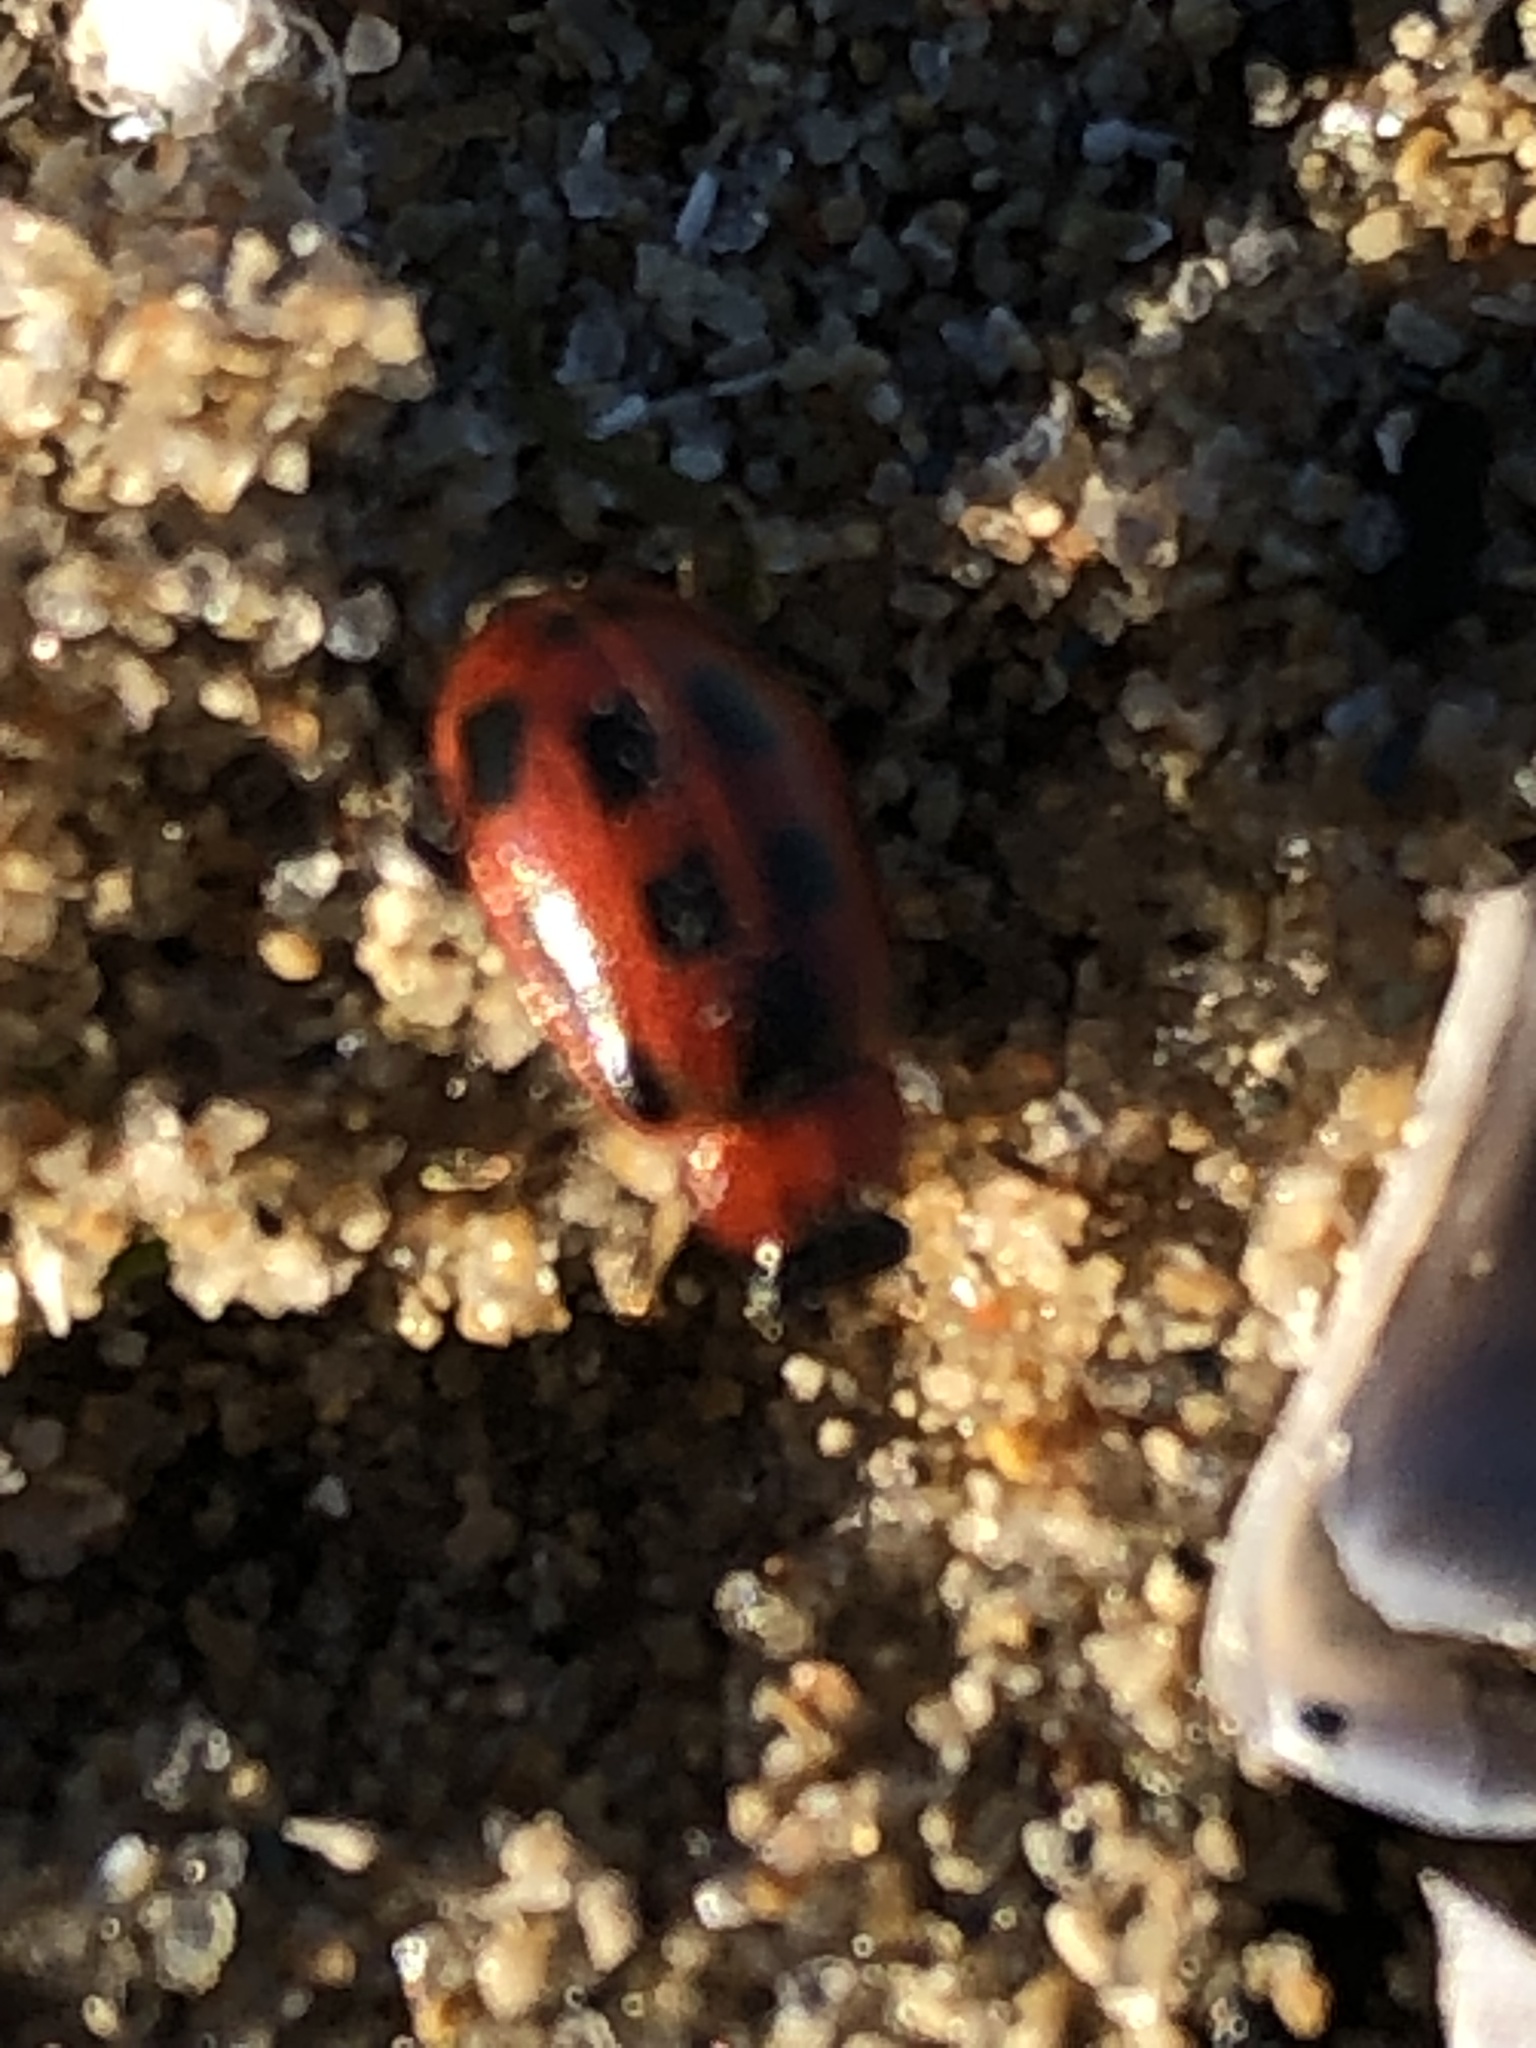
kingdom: Animalia
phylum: Arthropoda
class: Insecta
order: Coleoptera
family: Chrysomelidae
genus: Cerotoma
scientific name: Cerotoma trifurcata
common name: Bean leaf beetle
